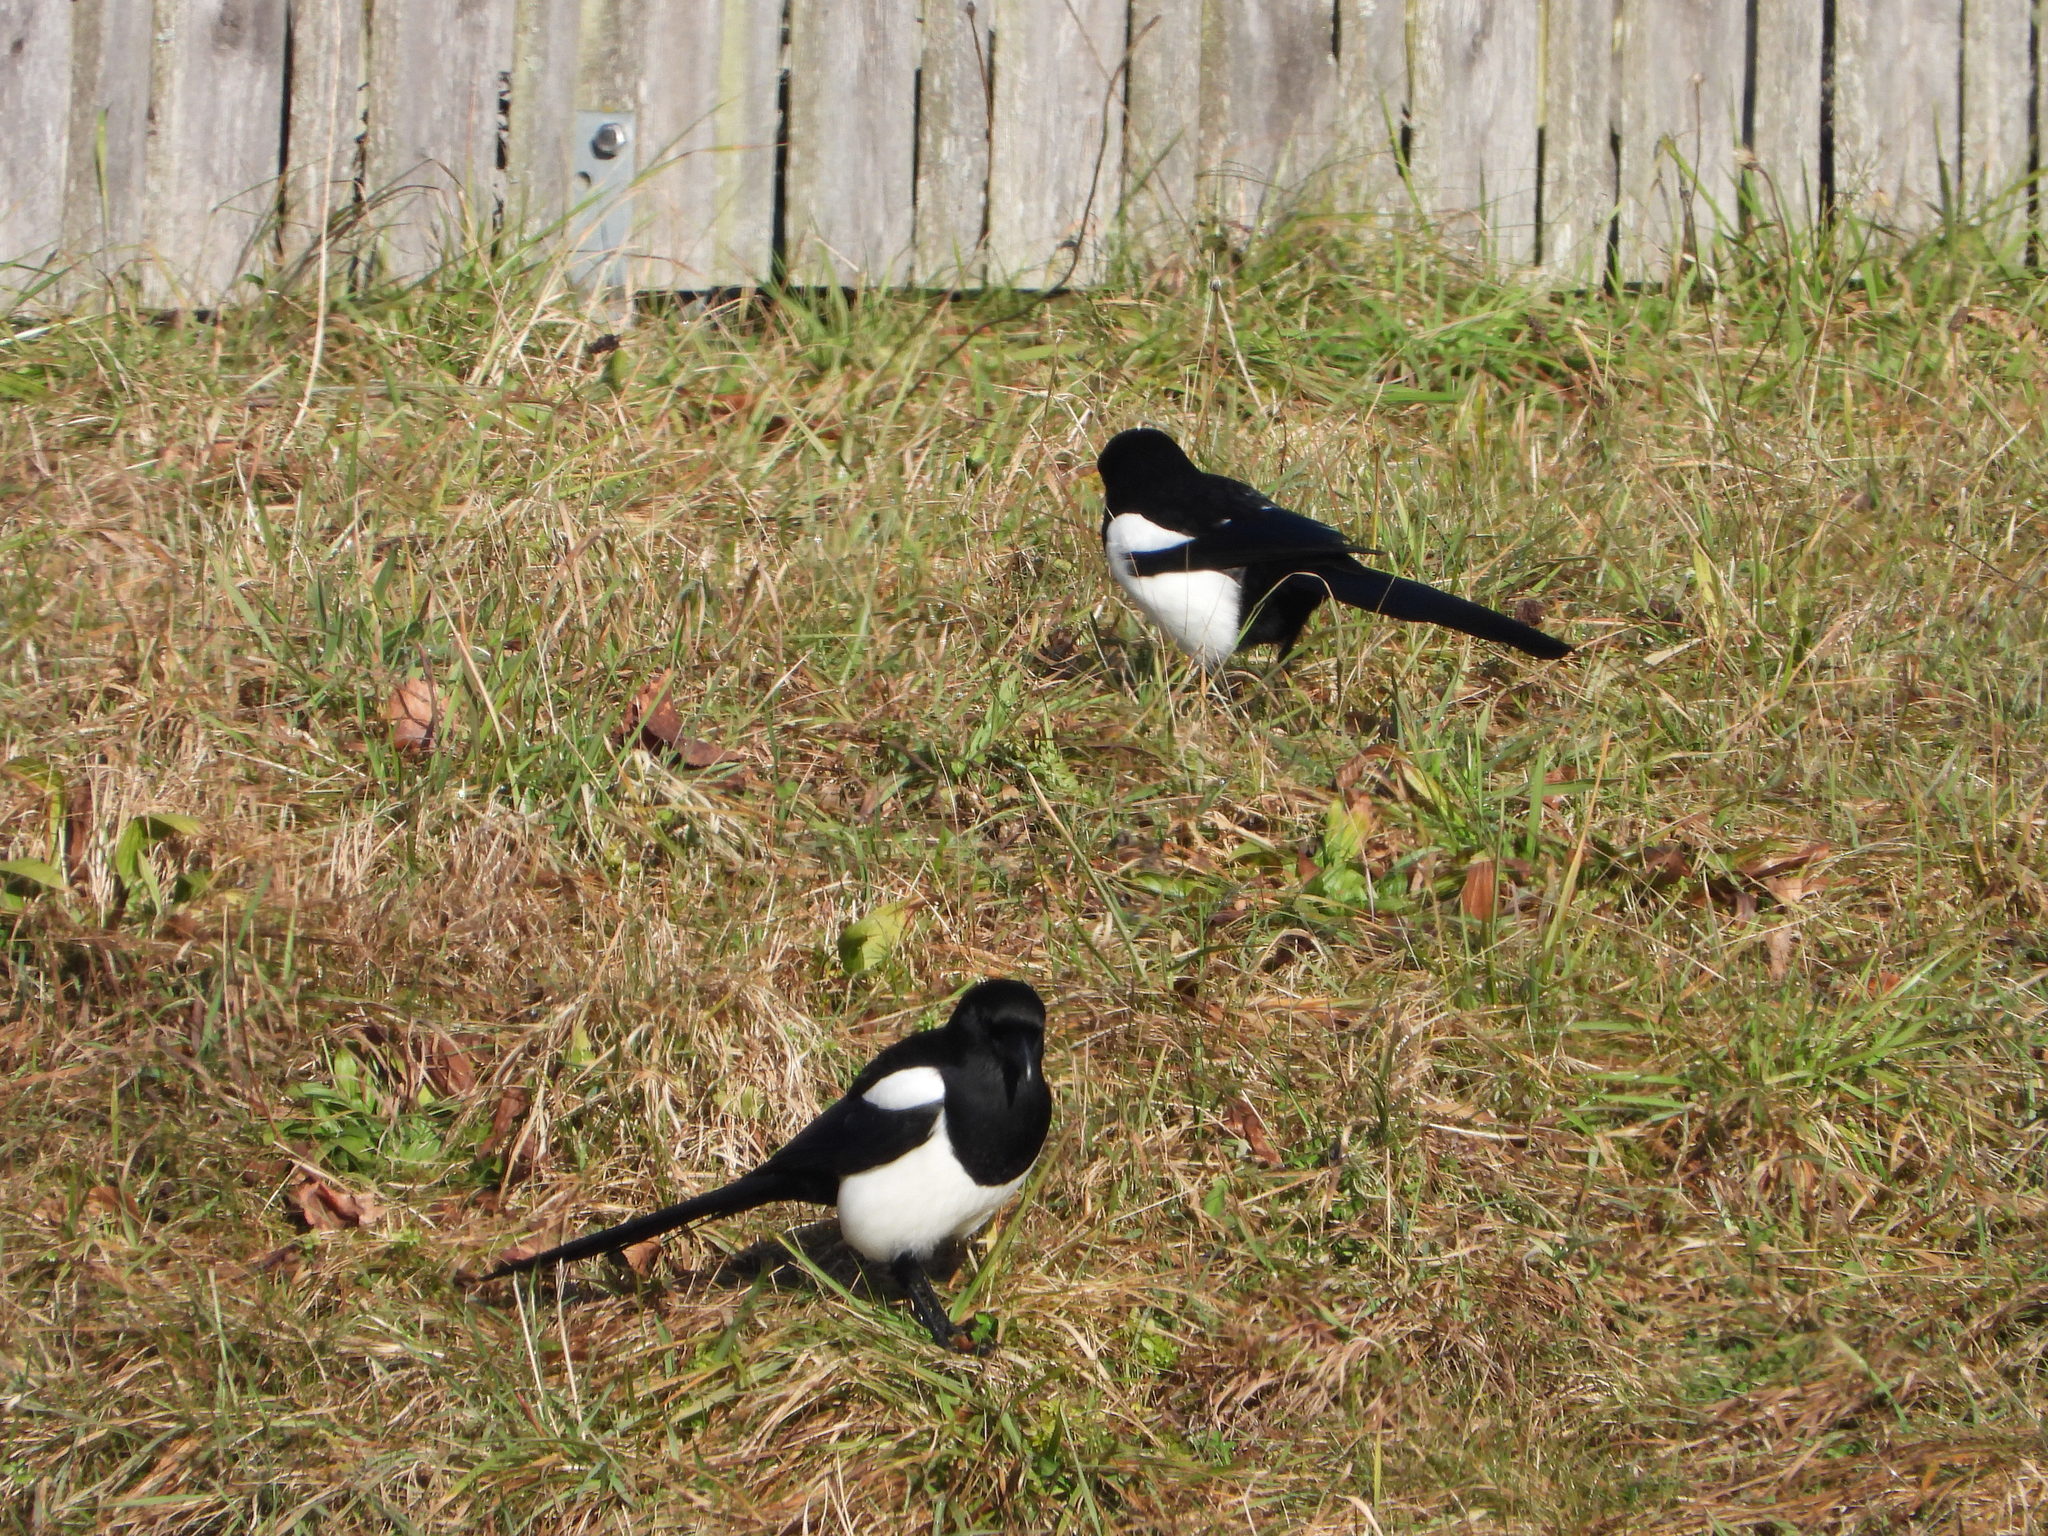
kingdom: Animalia
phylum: Chordata
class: Aves
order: Passeriformes
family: Corvidae
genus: Pica
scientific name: Pica pica
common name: Eurasian magpie
